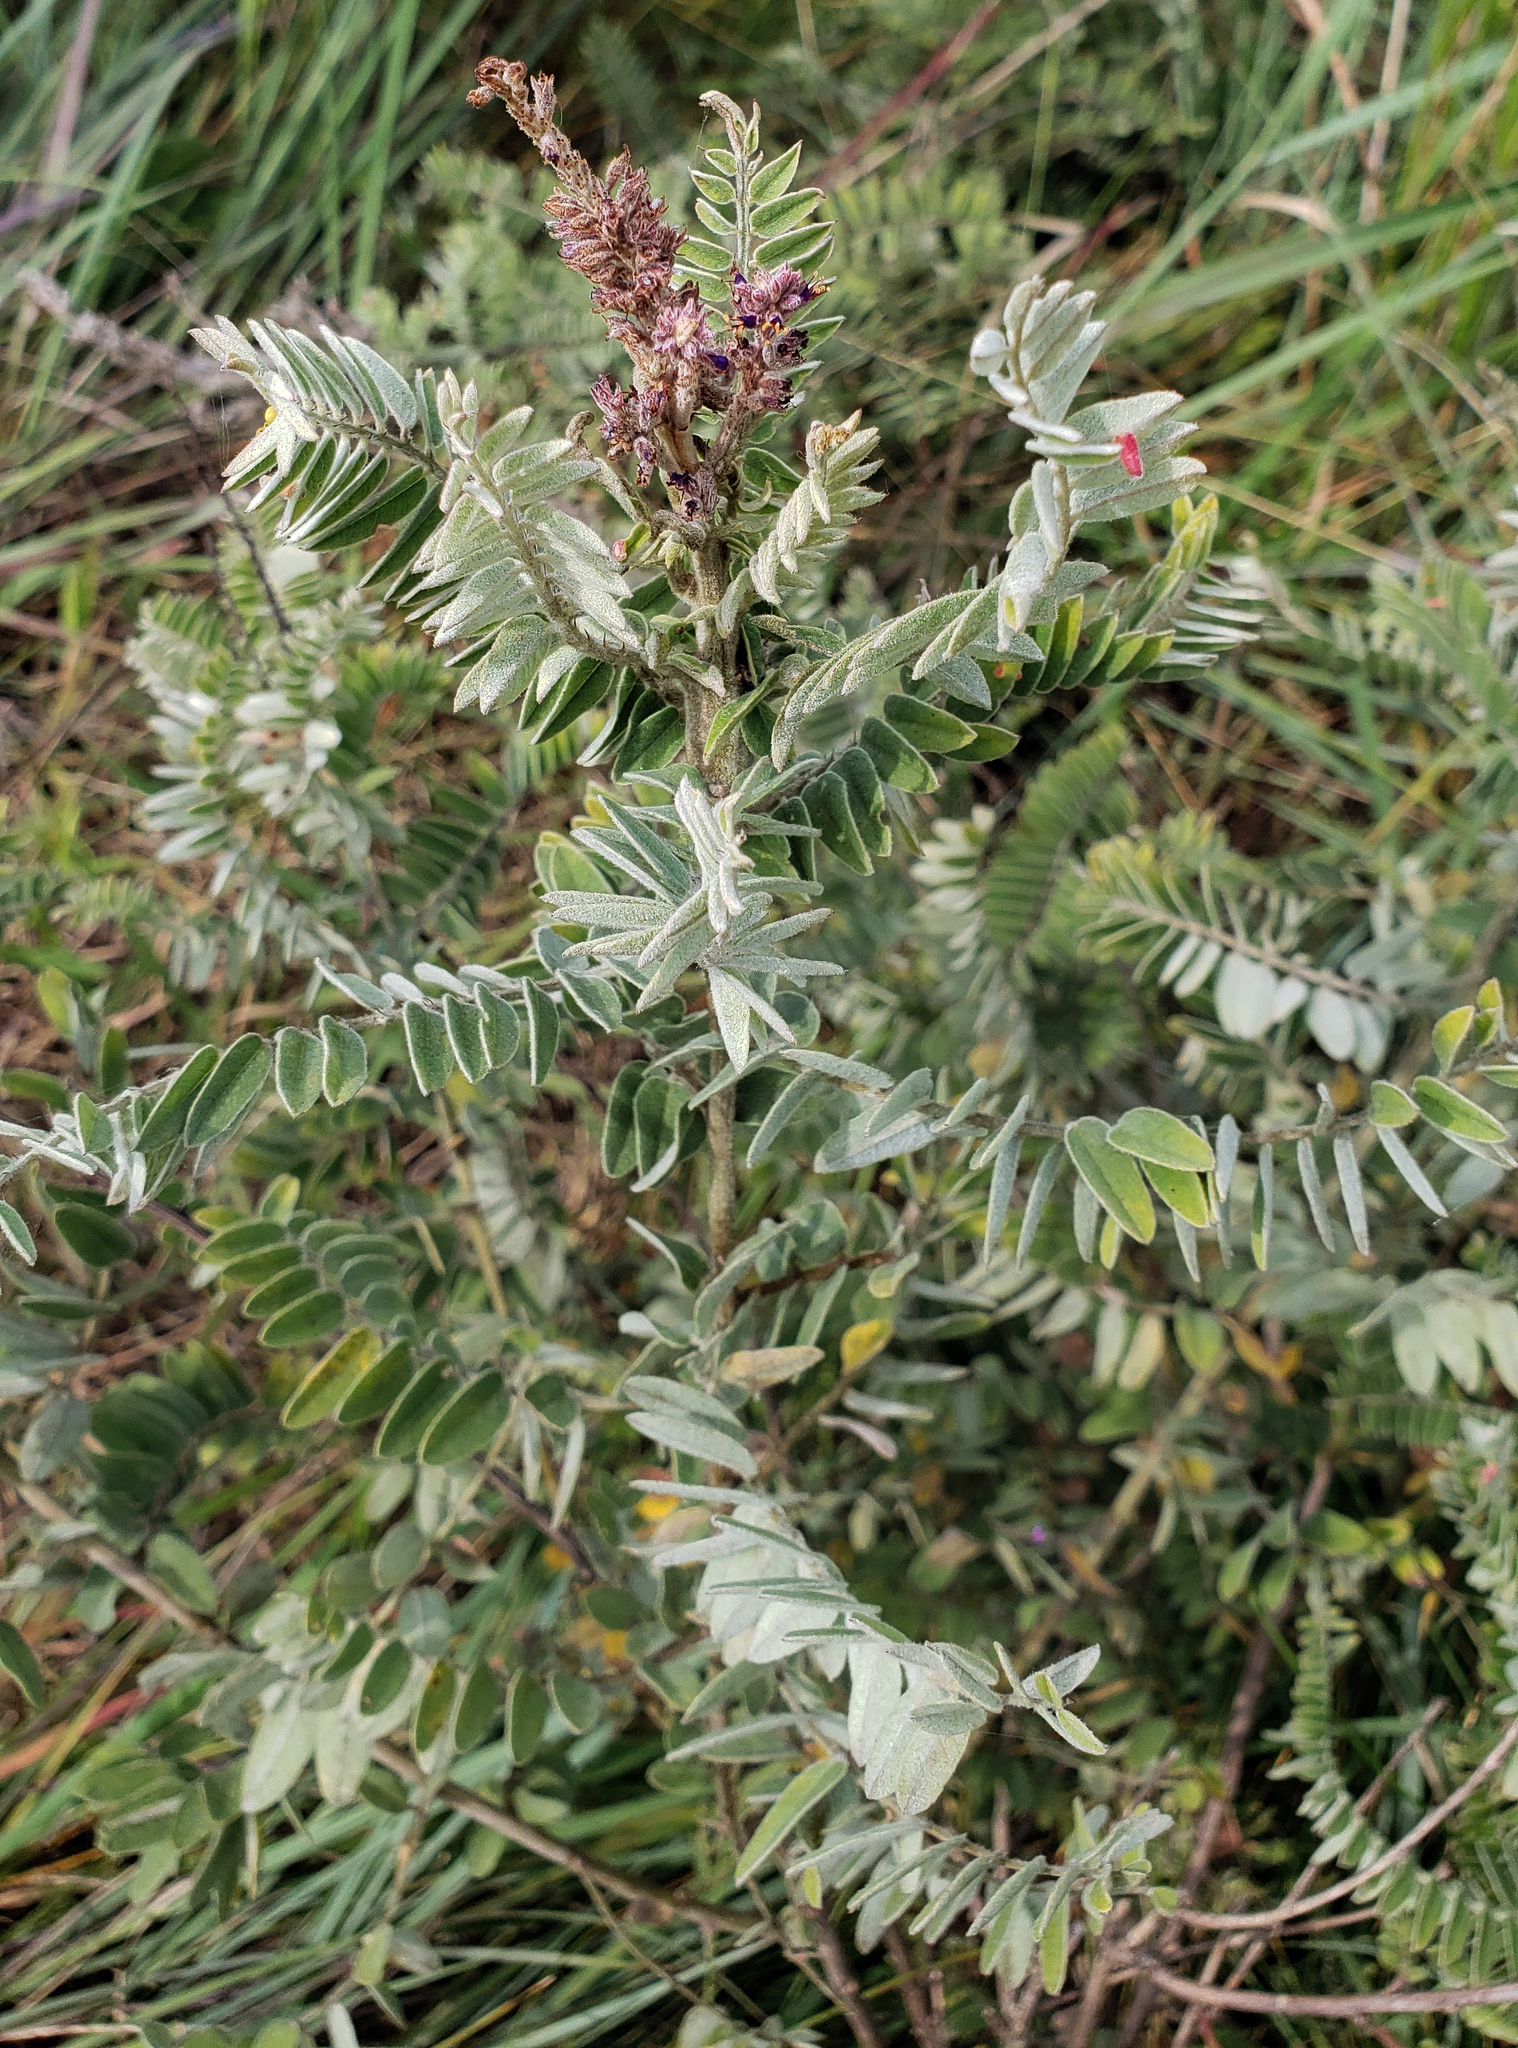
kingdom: Plantae
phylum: Tracheophyta
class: Magnoliopsida
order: Fabales
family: Fabaceae
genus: Amorpha
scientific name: Amorpha canescens
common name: Leadplant
